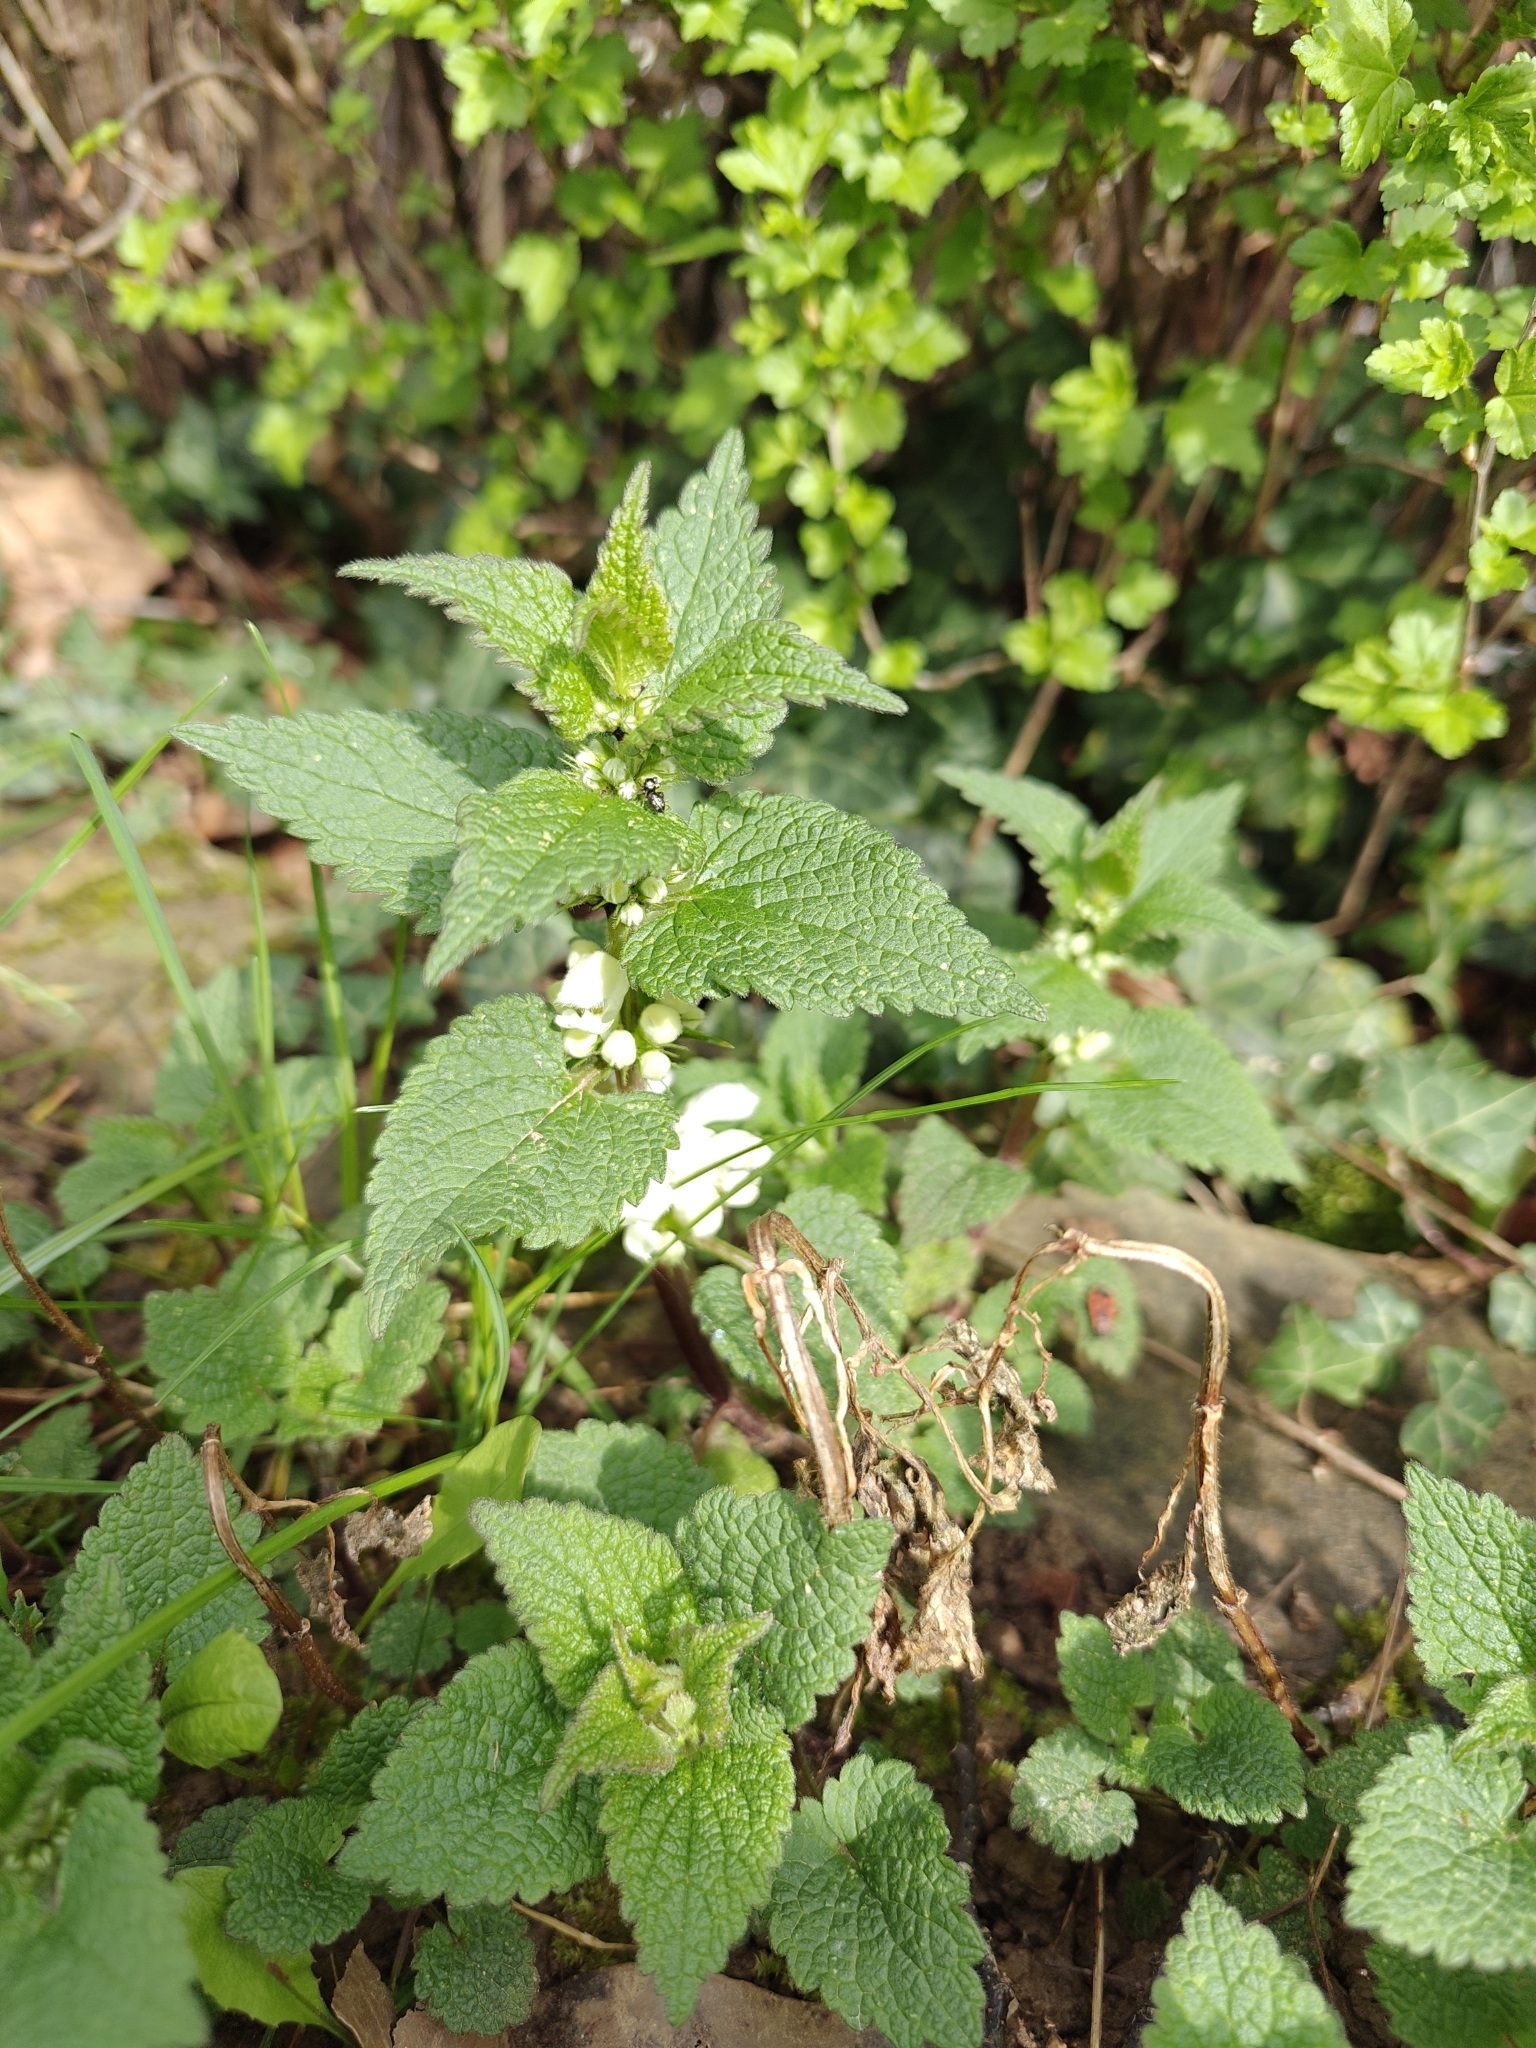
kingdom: Plantae
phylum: Tracheophyta
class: Magnoliopsida
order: Lamiales
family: Lamiaceae
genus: Lamium
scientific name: Lamium album
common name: White dead-nettle
